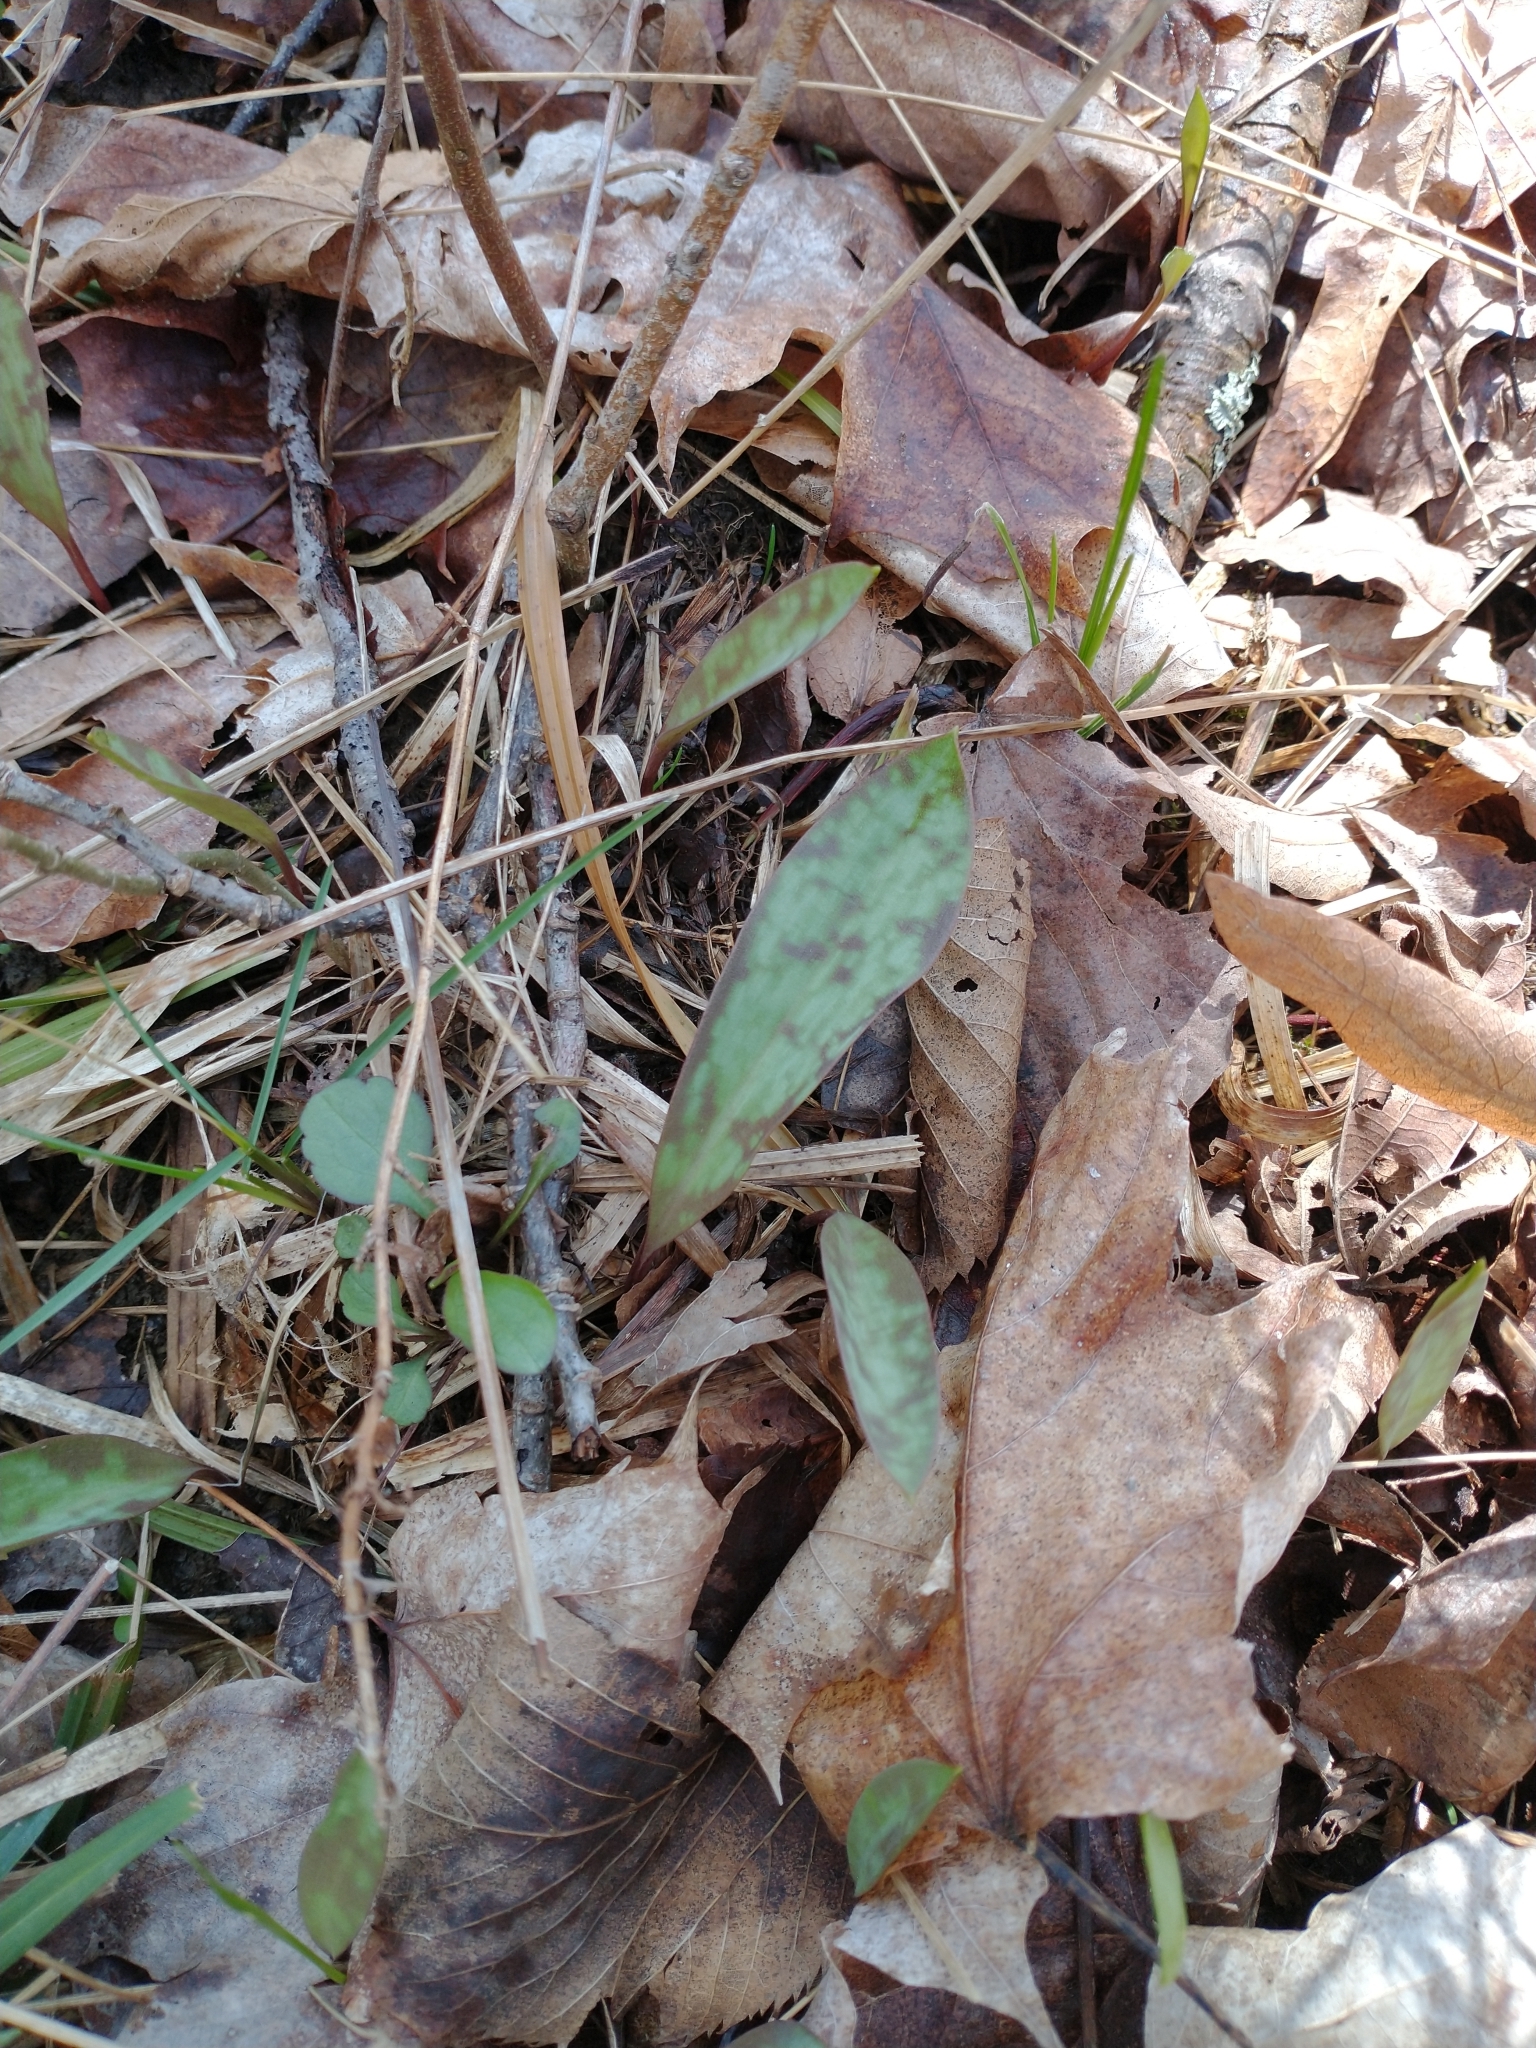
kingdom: Plantae
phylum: Tracheophyta
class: Liliopsida
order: Liliales
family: Liliaceae
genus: Erythronium
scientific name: Erythronium americanum
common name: Yellow adder's-tongue
